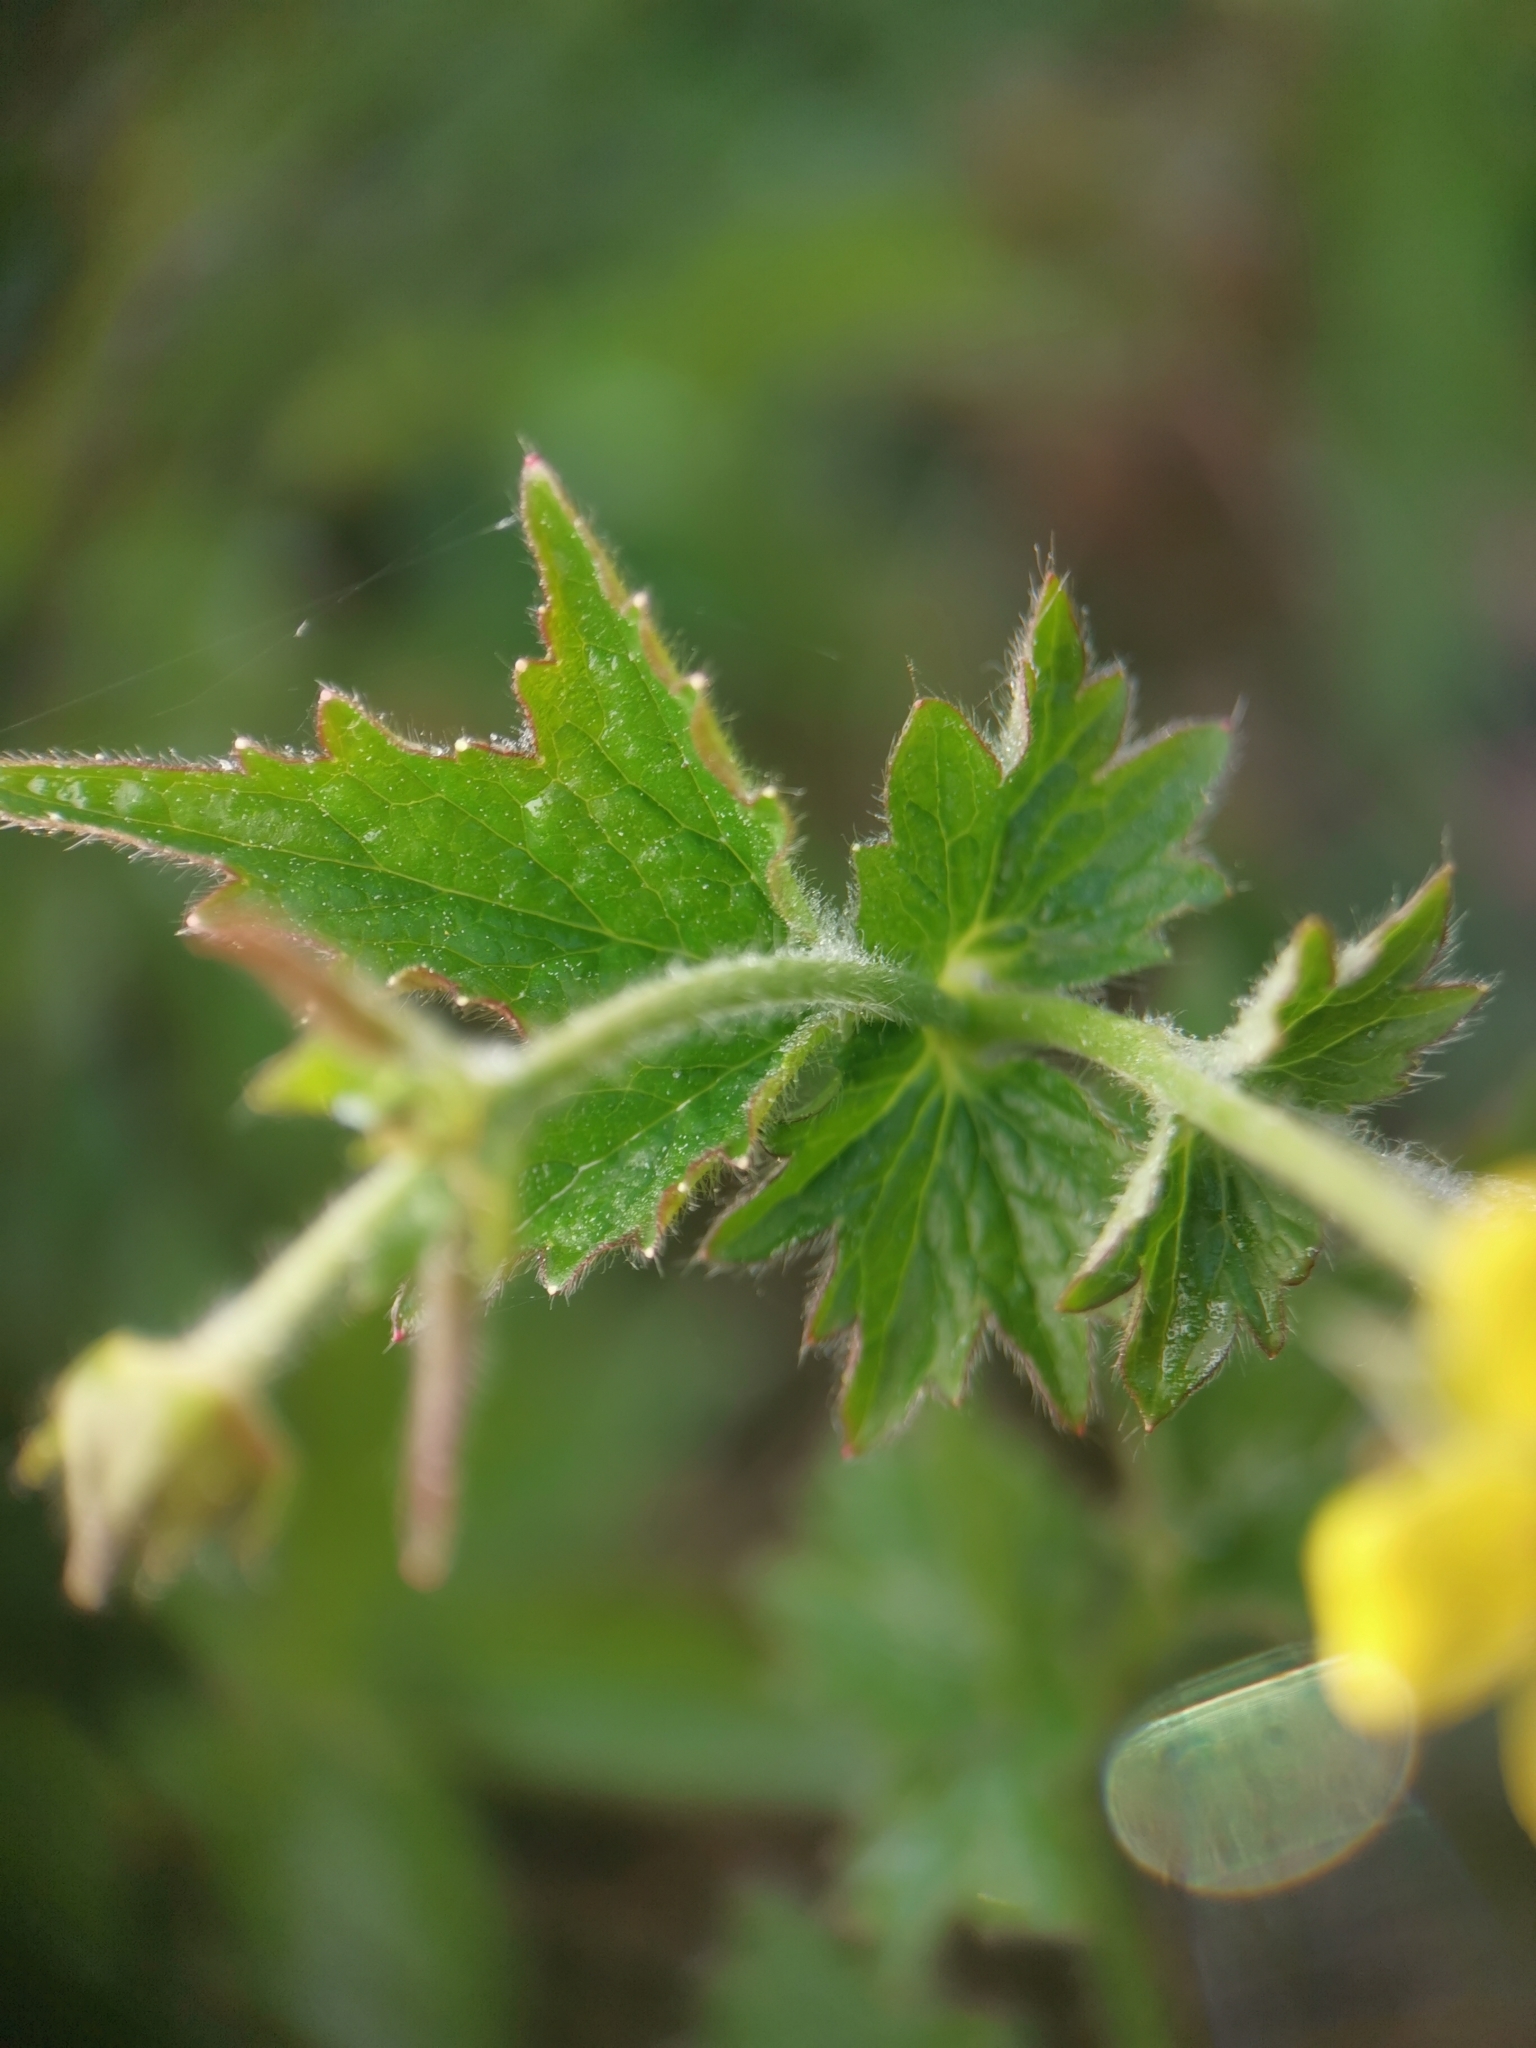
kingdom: Plantae
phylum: Tracheophyta
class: Magnoliopsida
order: Rosales
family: Rosaceae
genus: Geum
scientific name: Geum urbanum
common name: Wood avens
